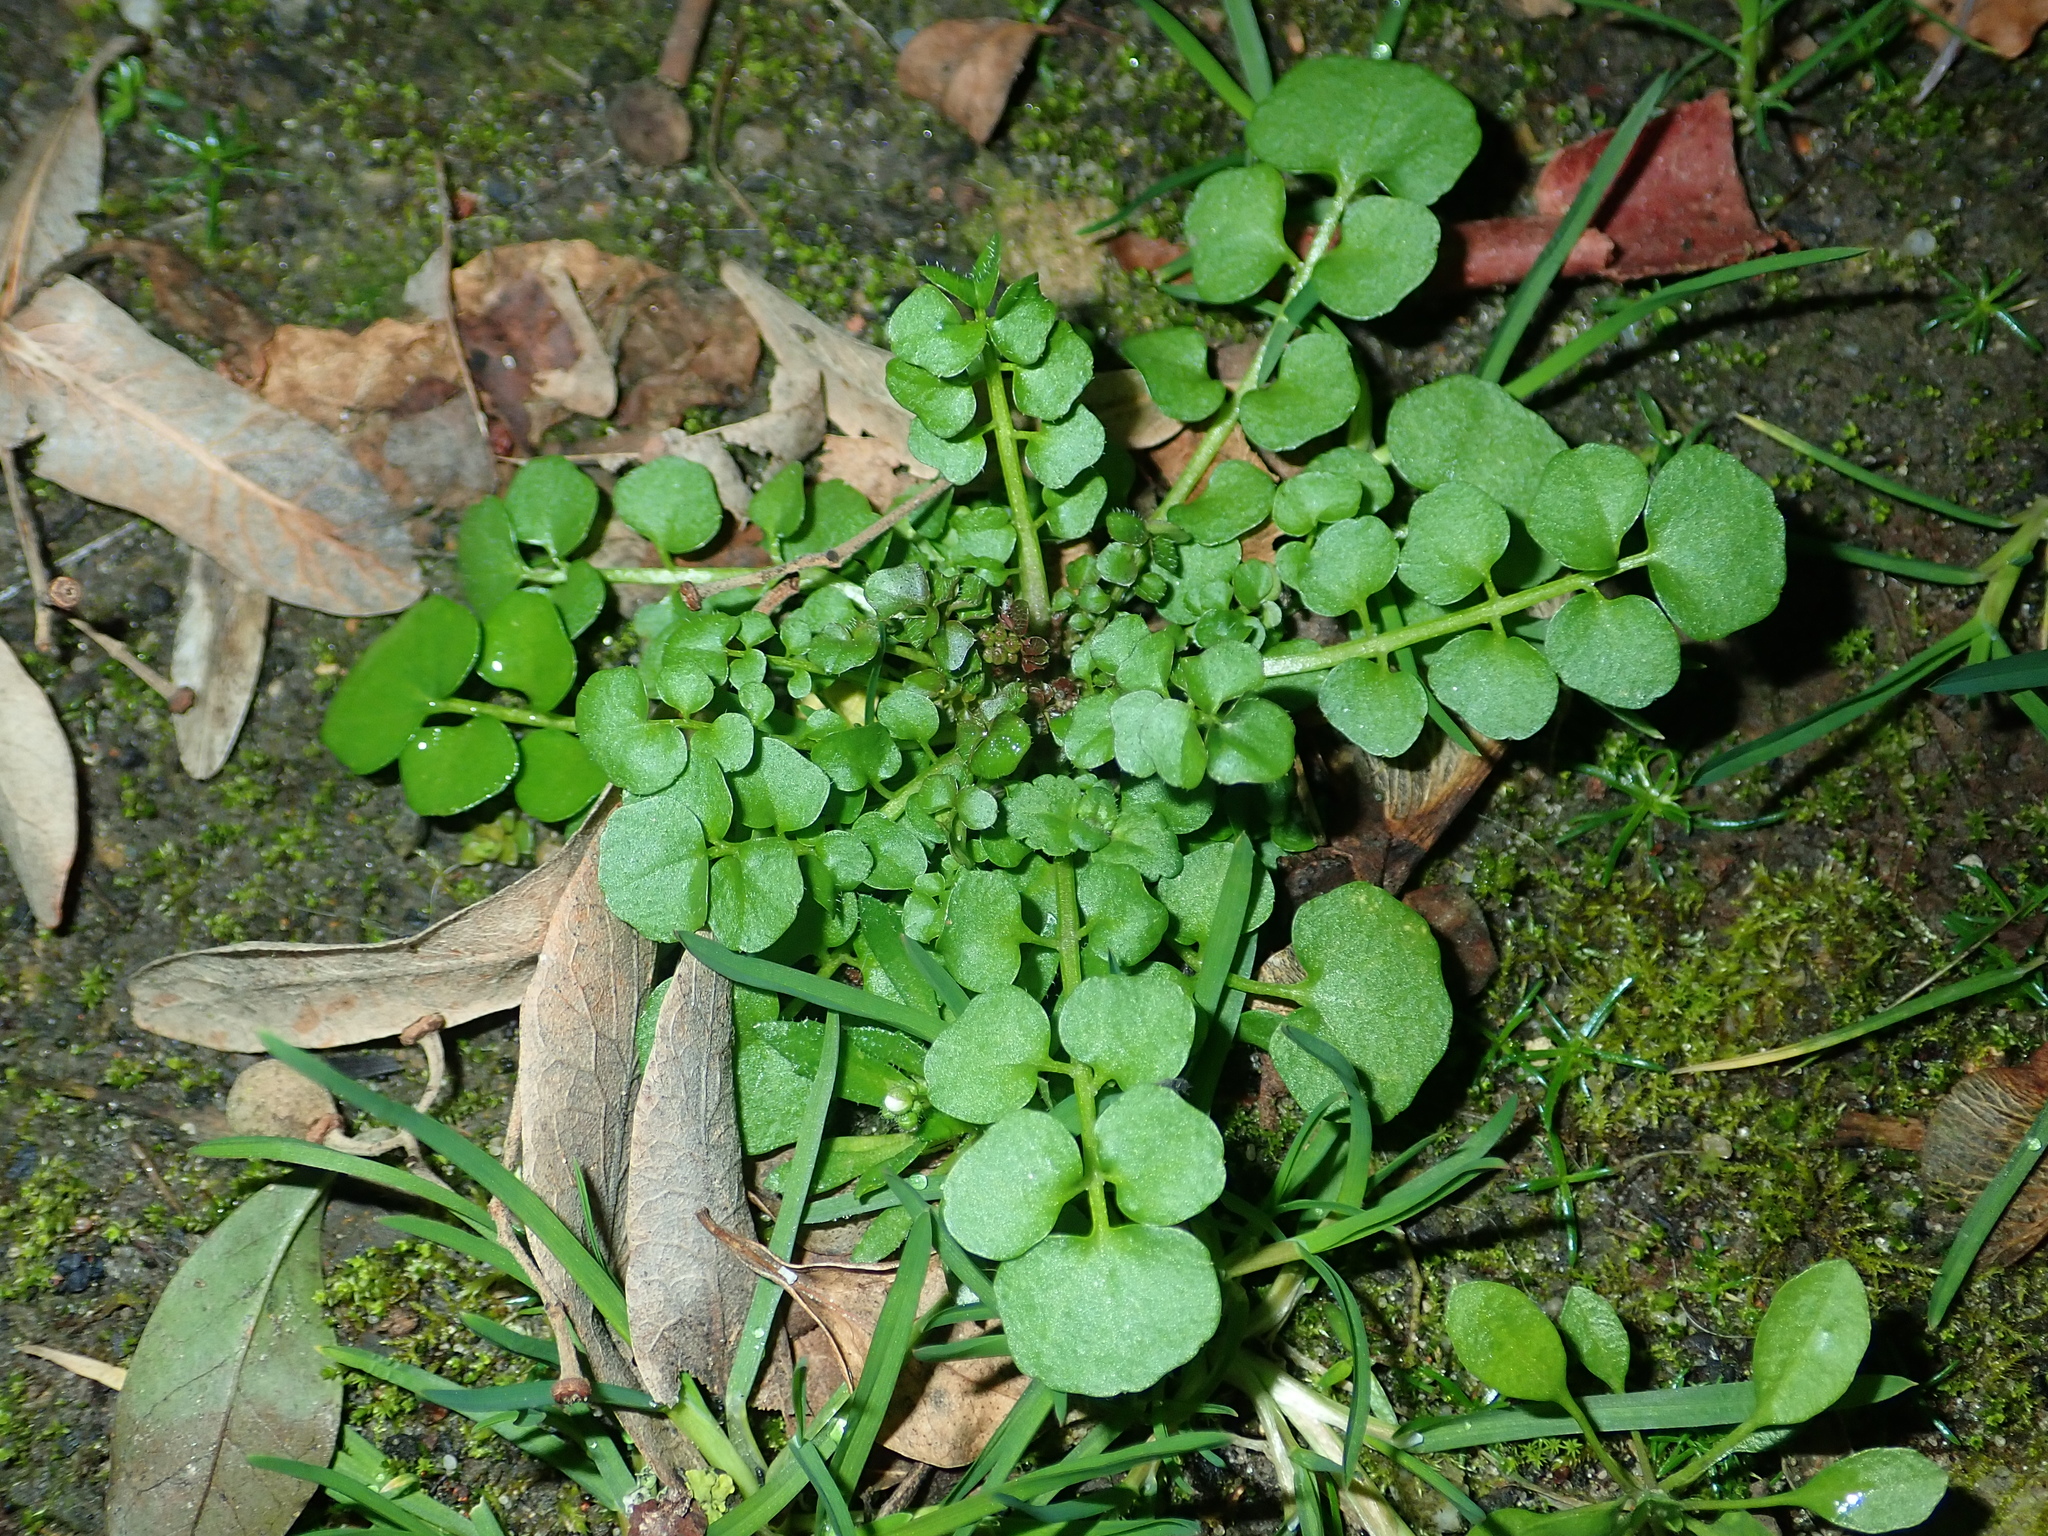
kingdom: Plantae
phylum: Tracheophyta
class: Magnoliopsida
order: Brassicales
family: Brassicaceae
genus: Cardamine
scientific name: Cardamine hirsuta
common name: Hairy bittercress
